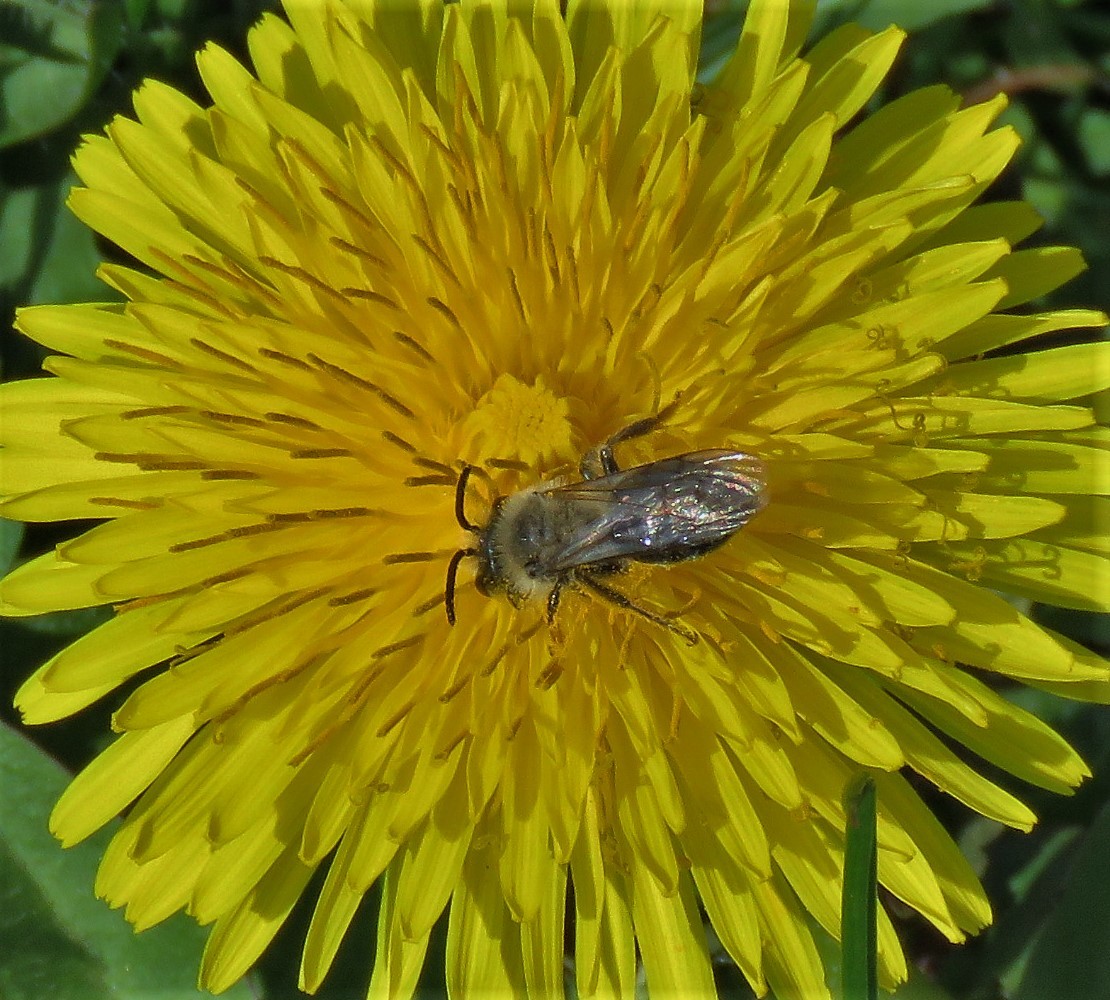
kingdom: Animalia
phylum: Arthropoda
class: Insecta
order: Hymenoptera
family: Andrenidae
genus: Andrena
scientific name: Andrena
